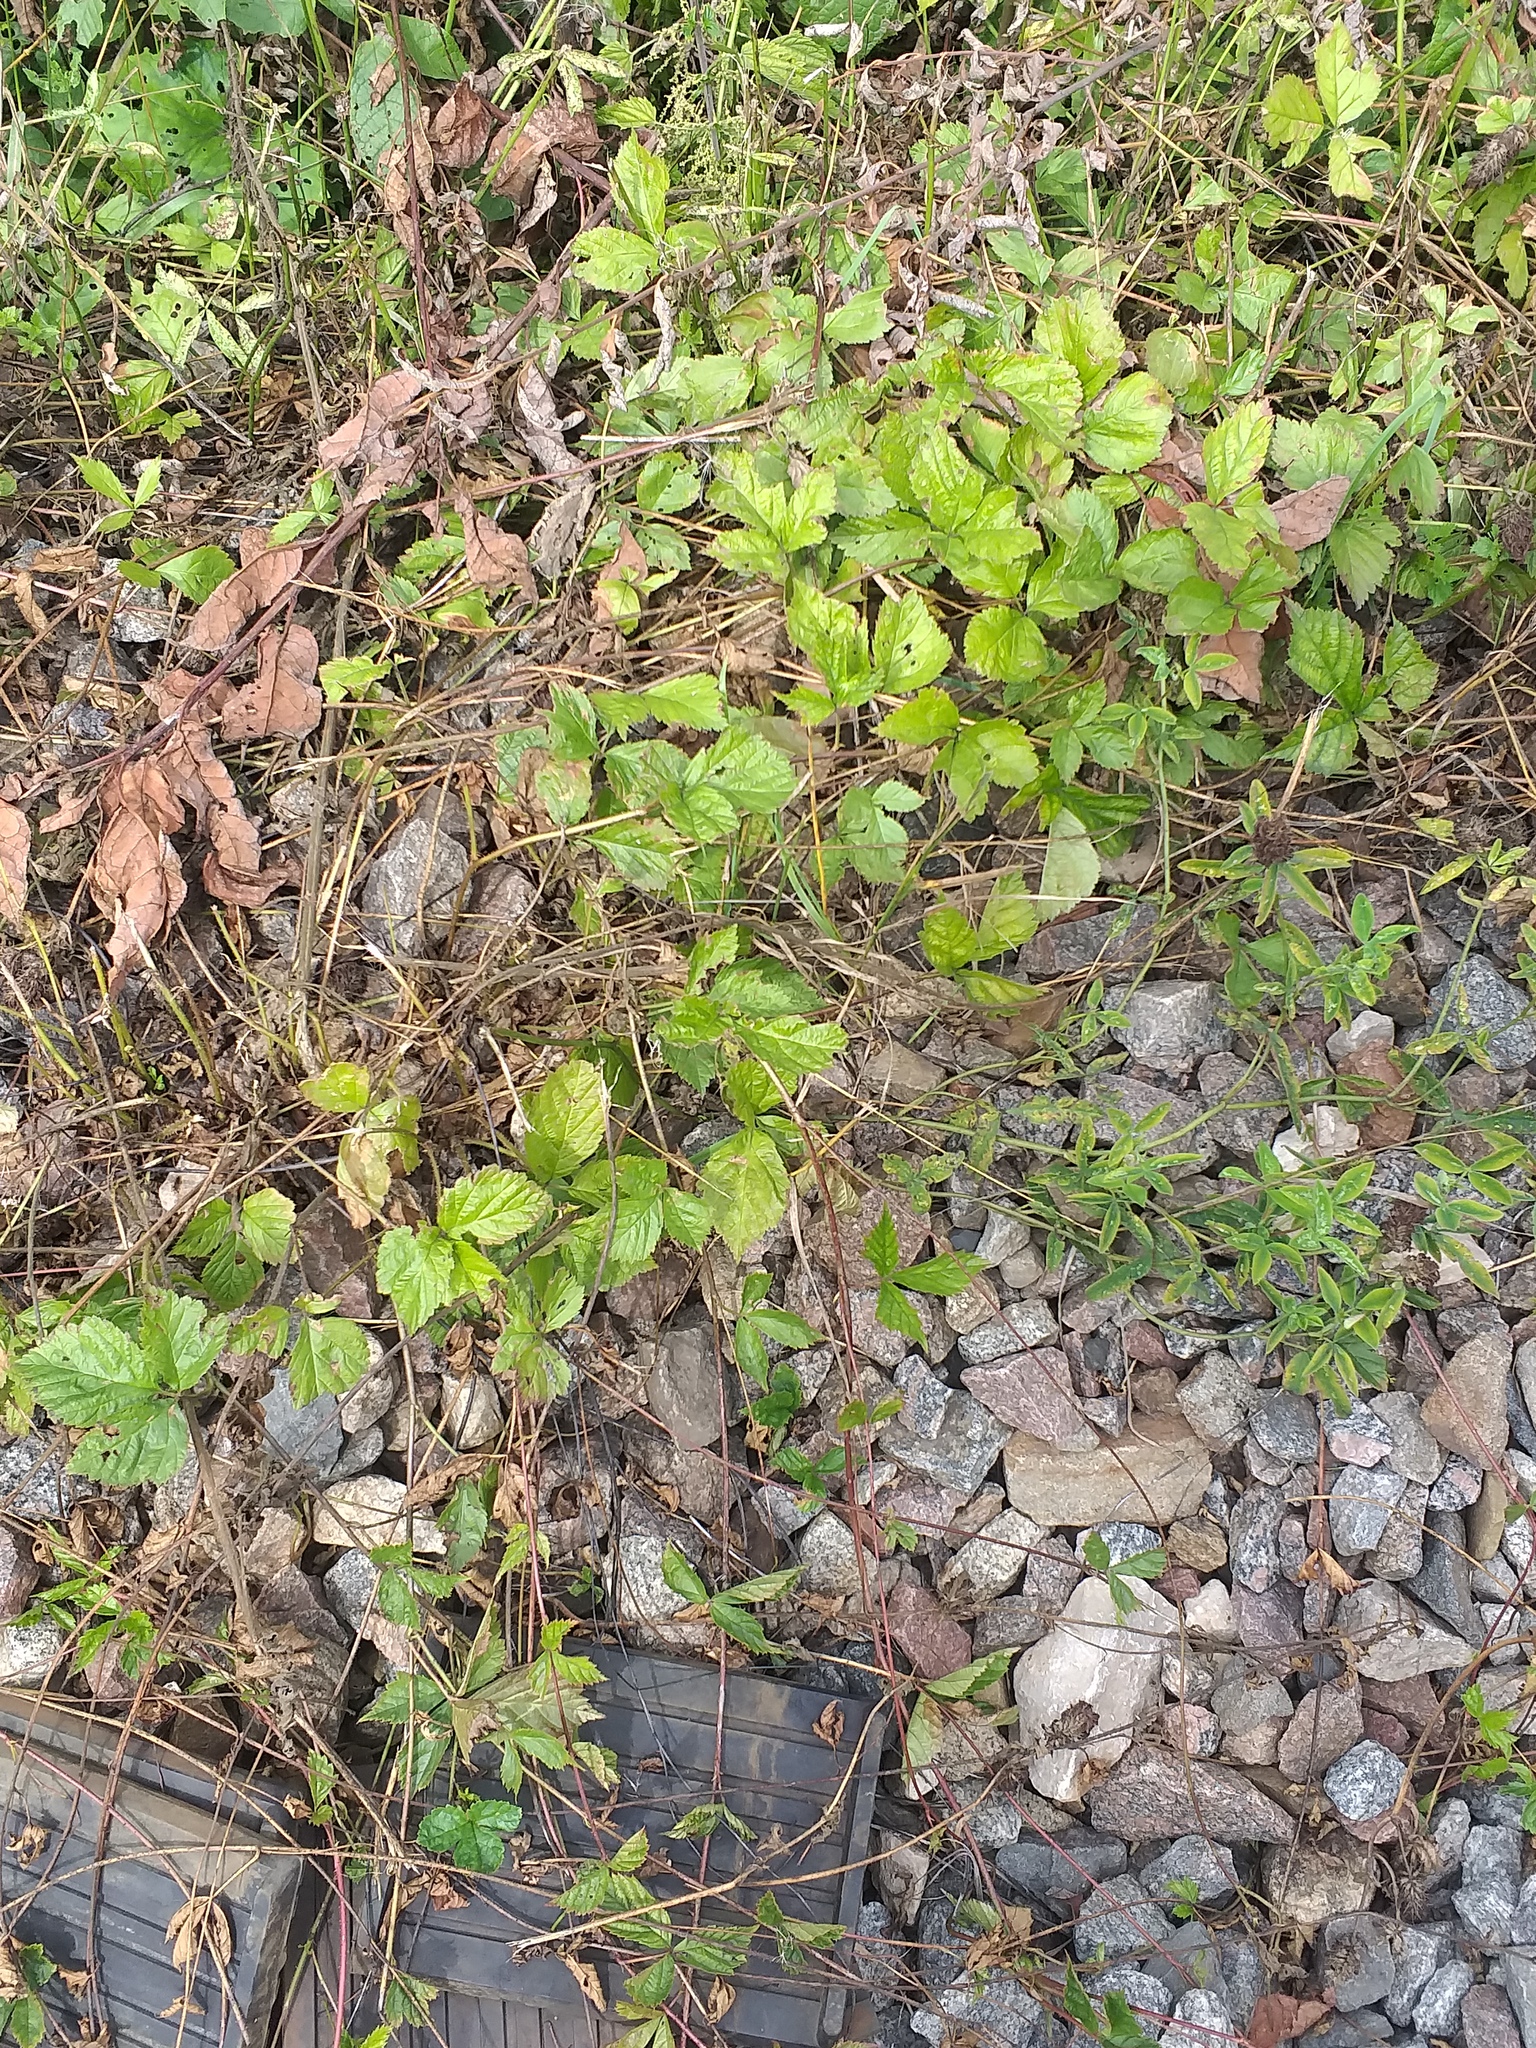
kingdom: Plantae
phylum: Tracheophyta
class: Magnoliopsida
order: Rosales
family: Rosaceae
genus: Rubus
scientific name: Rubus saxatilis
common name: Stone bramble
